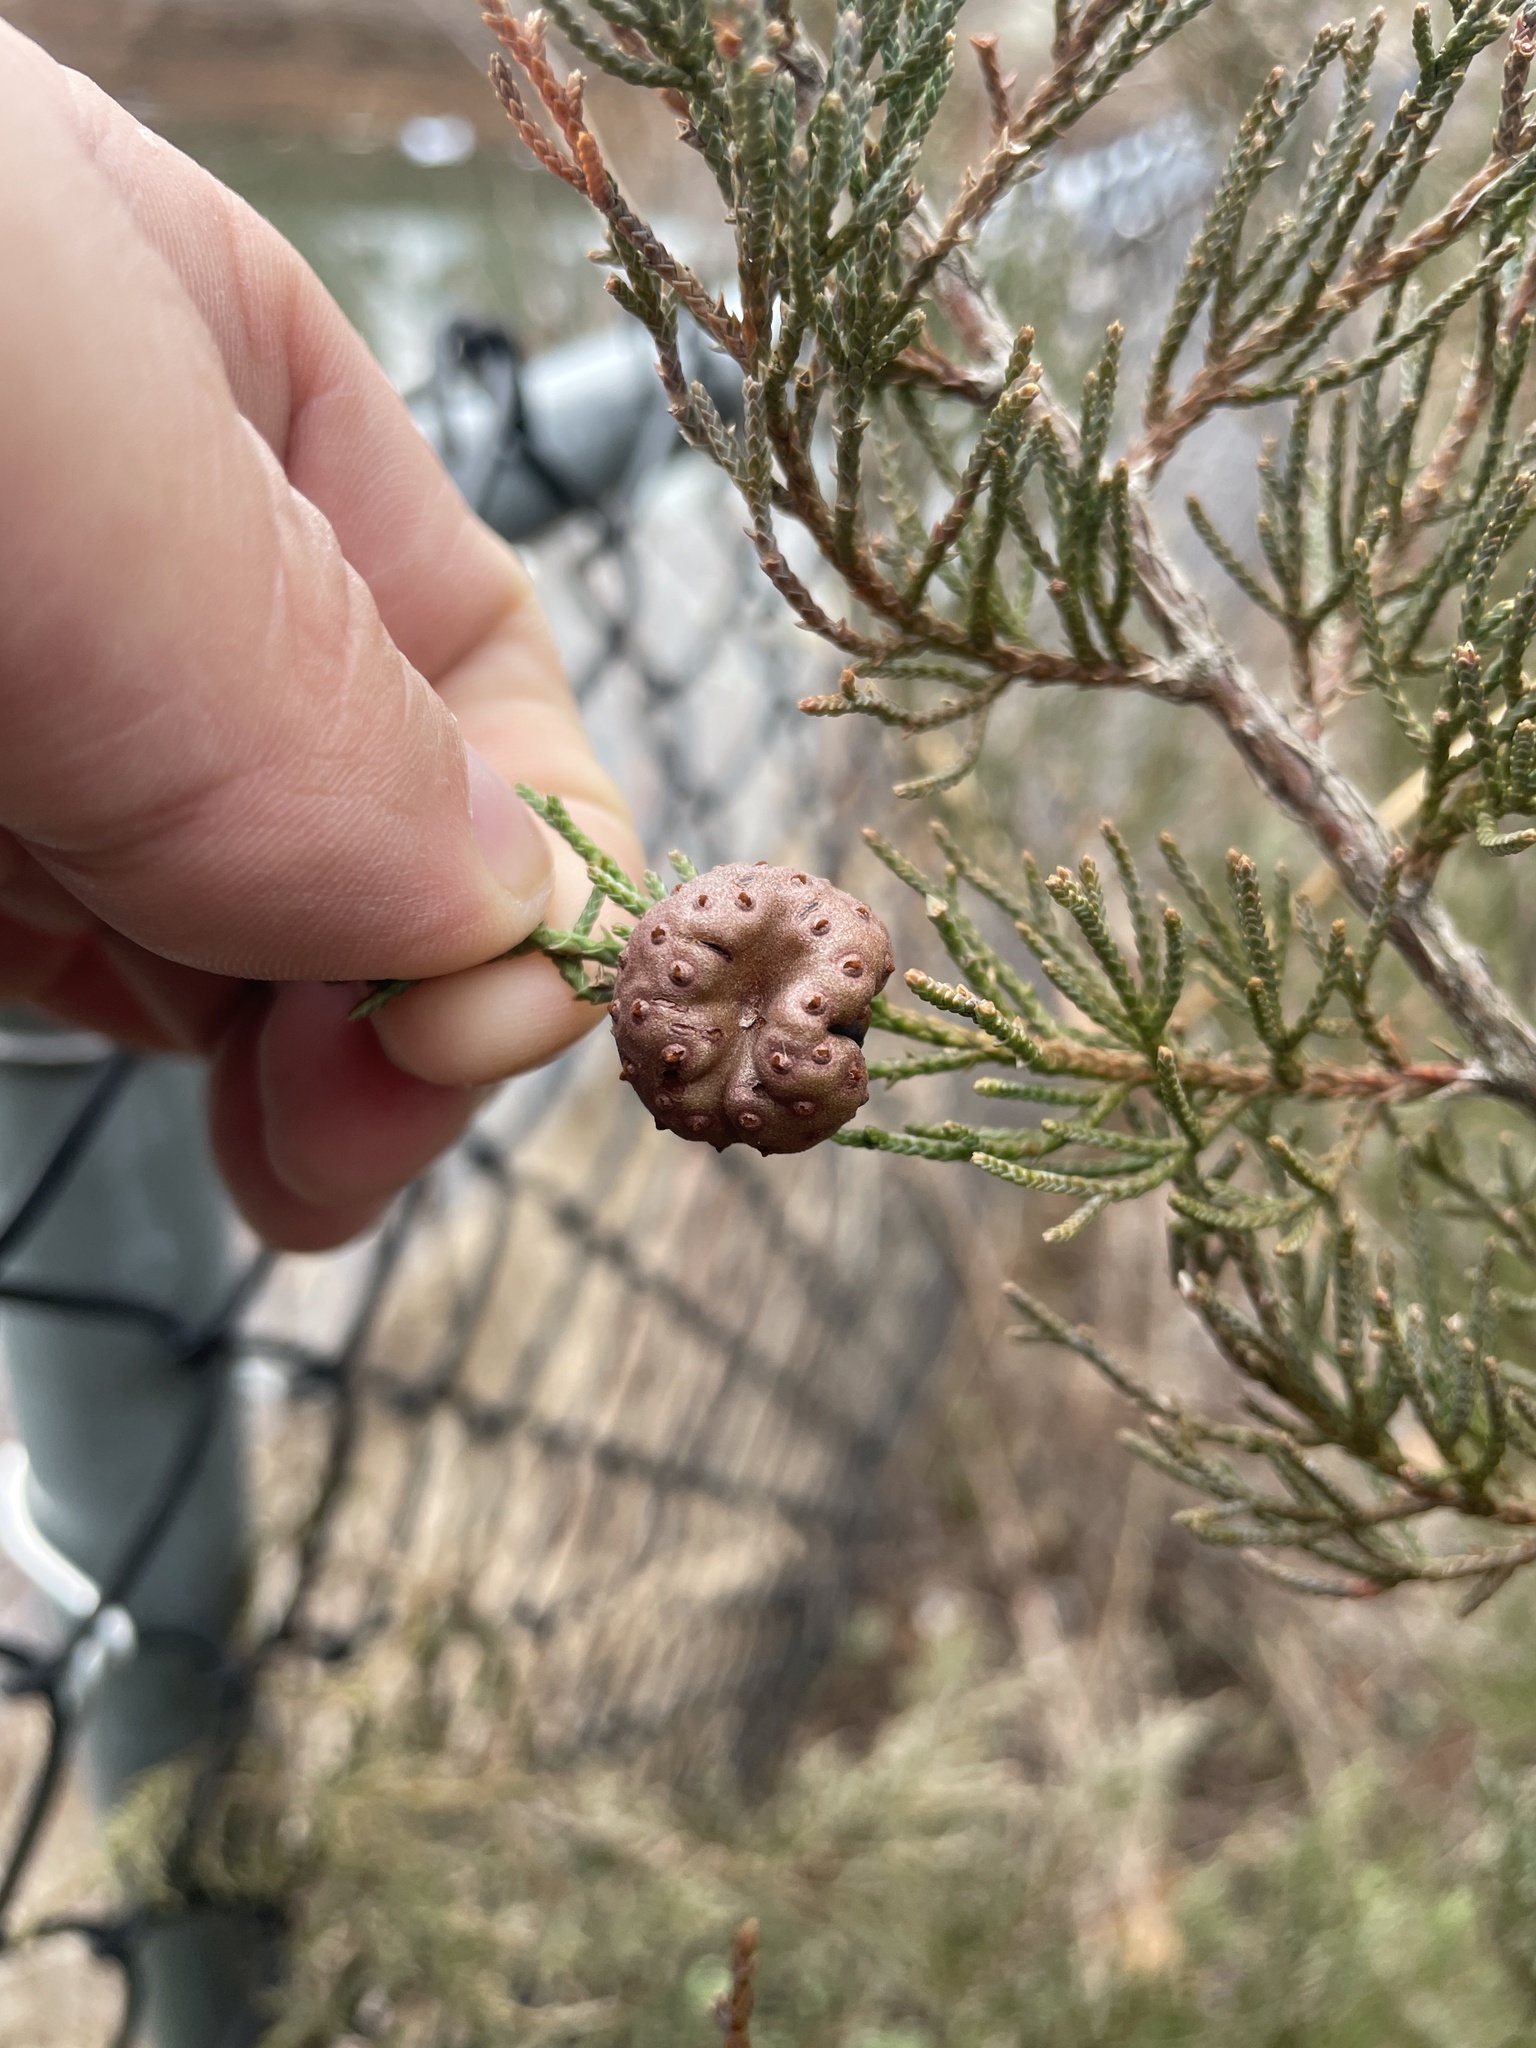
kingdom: Fungi
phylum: Basidiomycota
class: Pucciniomycetes
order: Pucciniales
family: Gymnosporangiaceae
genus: Gymnosporangium
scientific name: Gymnosporangium juniperi-virginianae
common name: Juniper-apple rust
